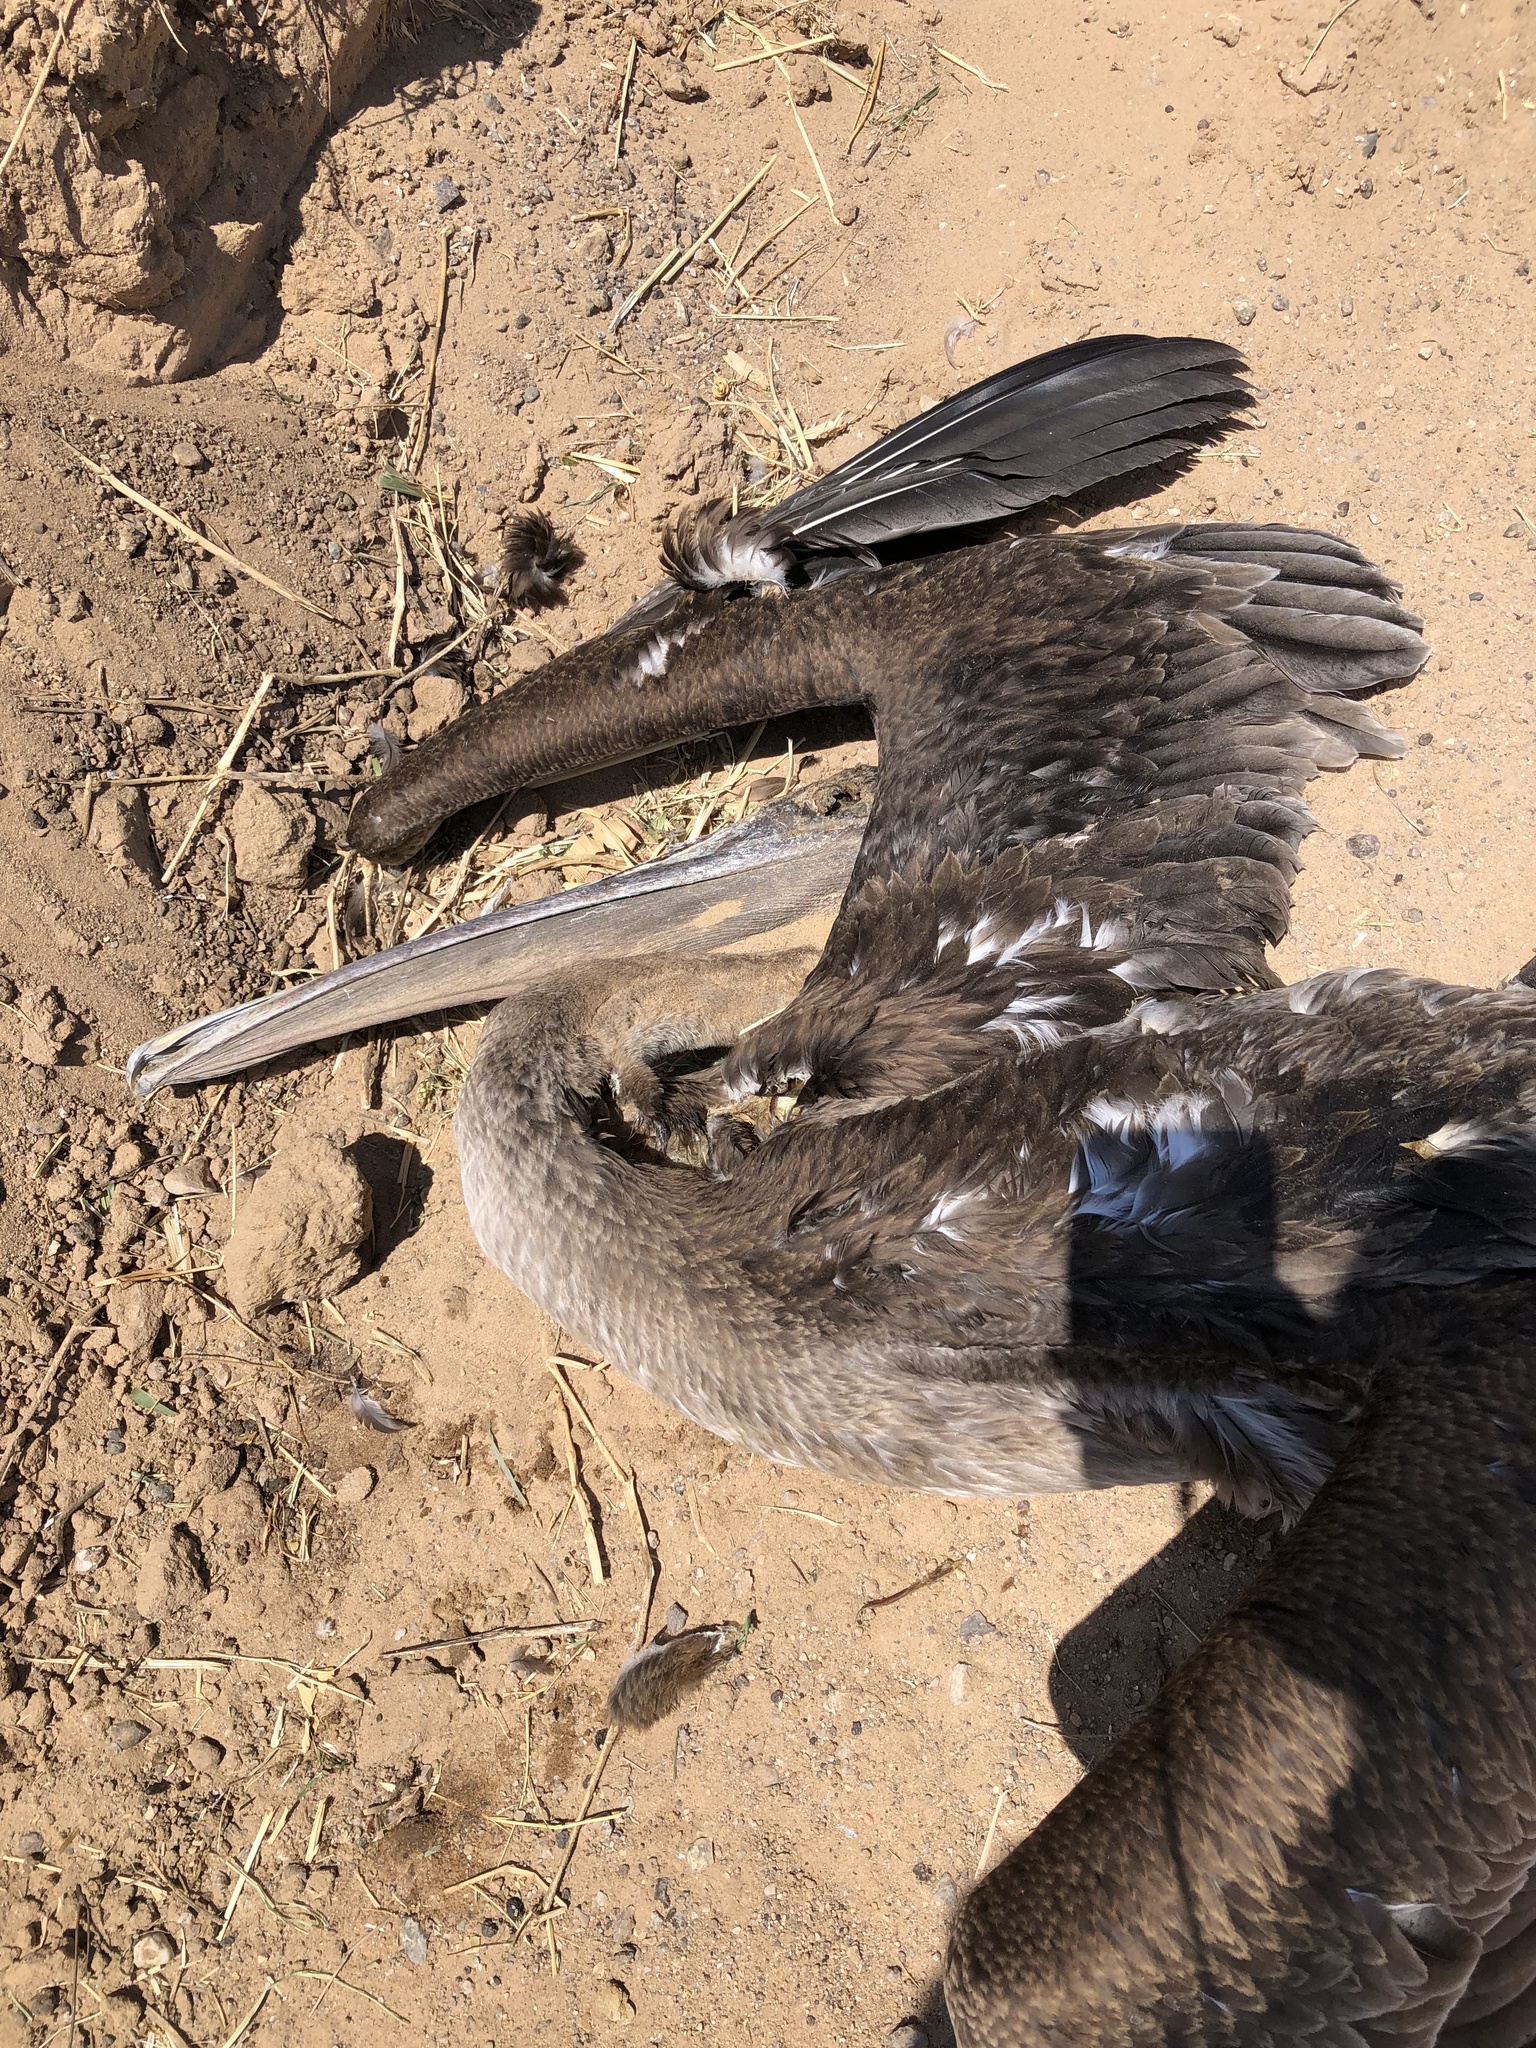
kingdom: Animalia
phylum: Chordata
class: Aves
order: Pelecaniformes
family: Pelecanidae
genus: Pelecanus
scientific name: Pelecanus occidentalis
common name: Brown pelican
